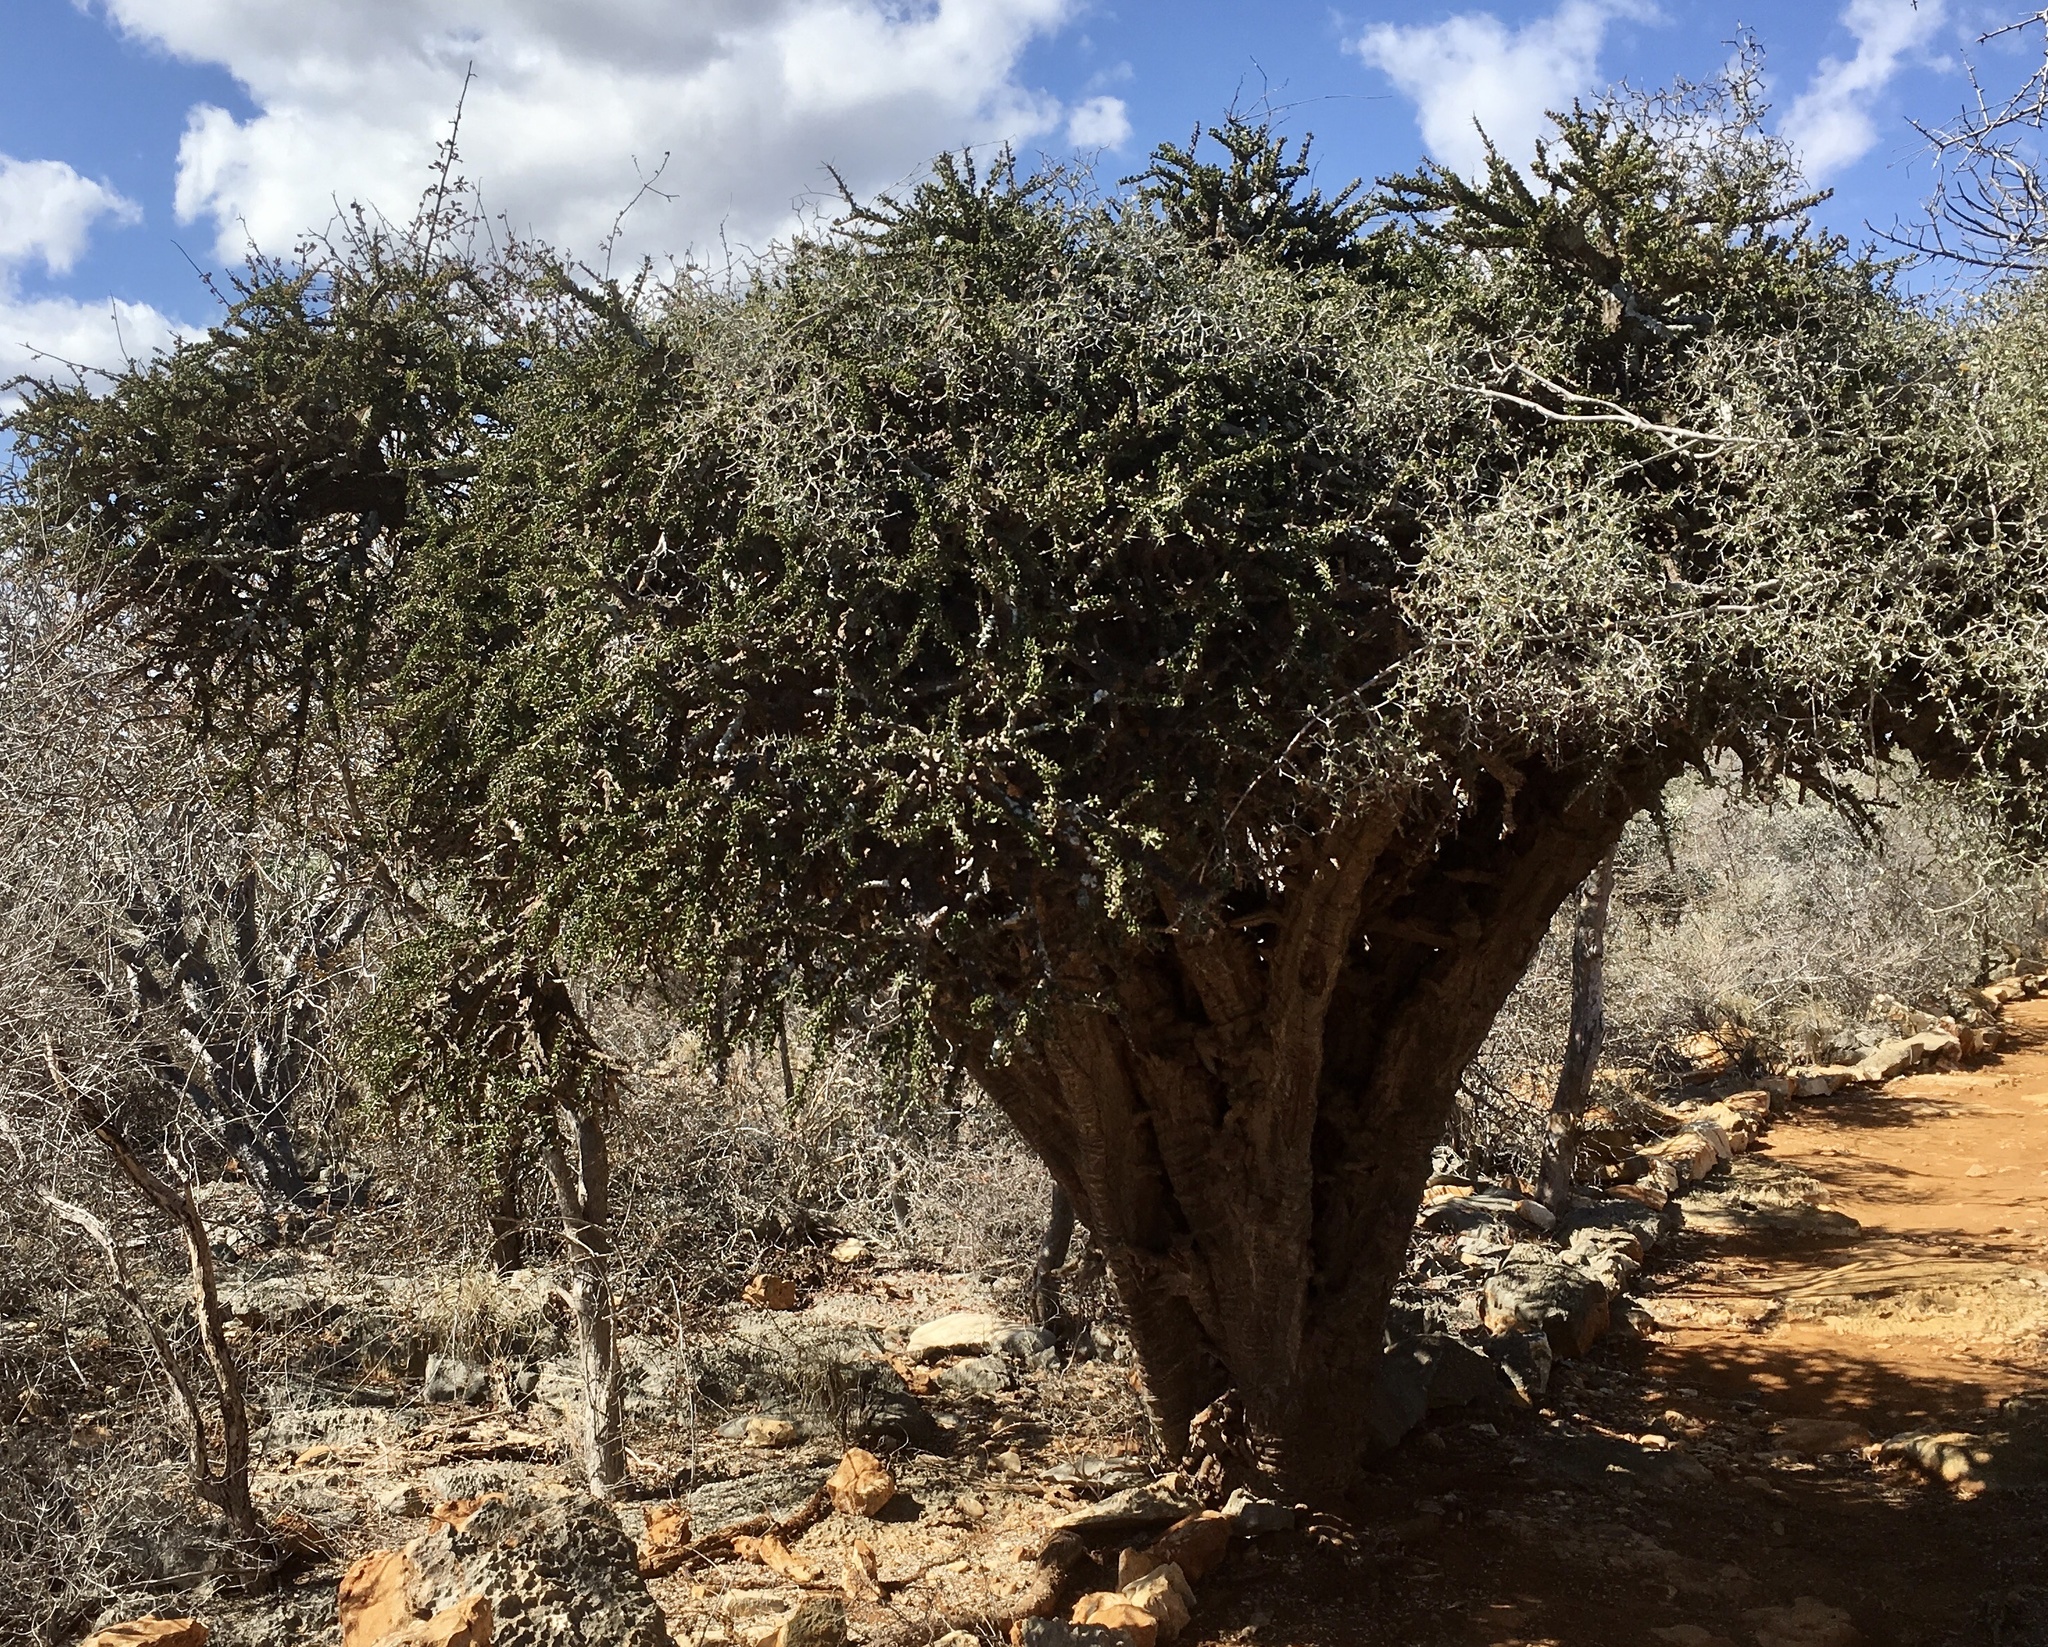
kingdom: Plantae
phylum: Tracheophyta
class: Magnoliopsida
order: Caryophyllales
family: Didiereaceae
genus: Alluaudia
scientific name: Alluaudia comosa
